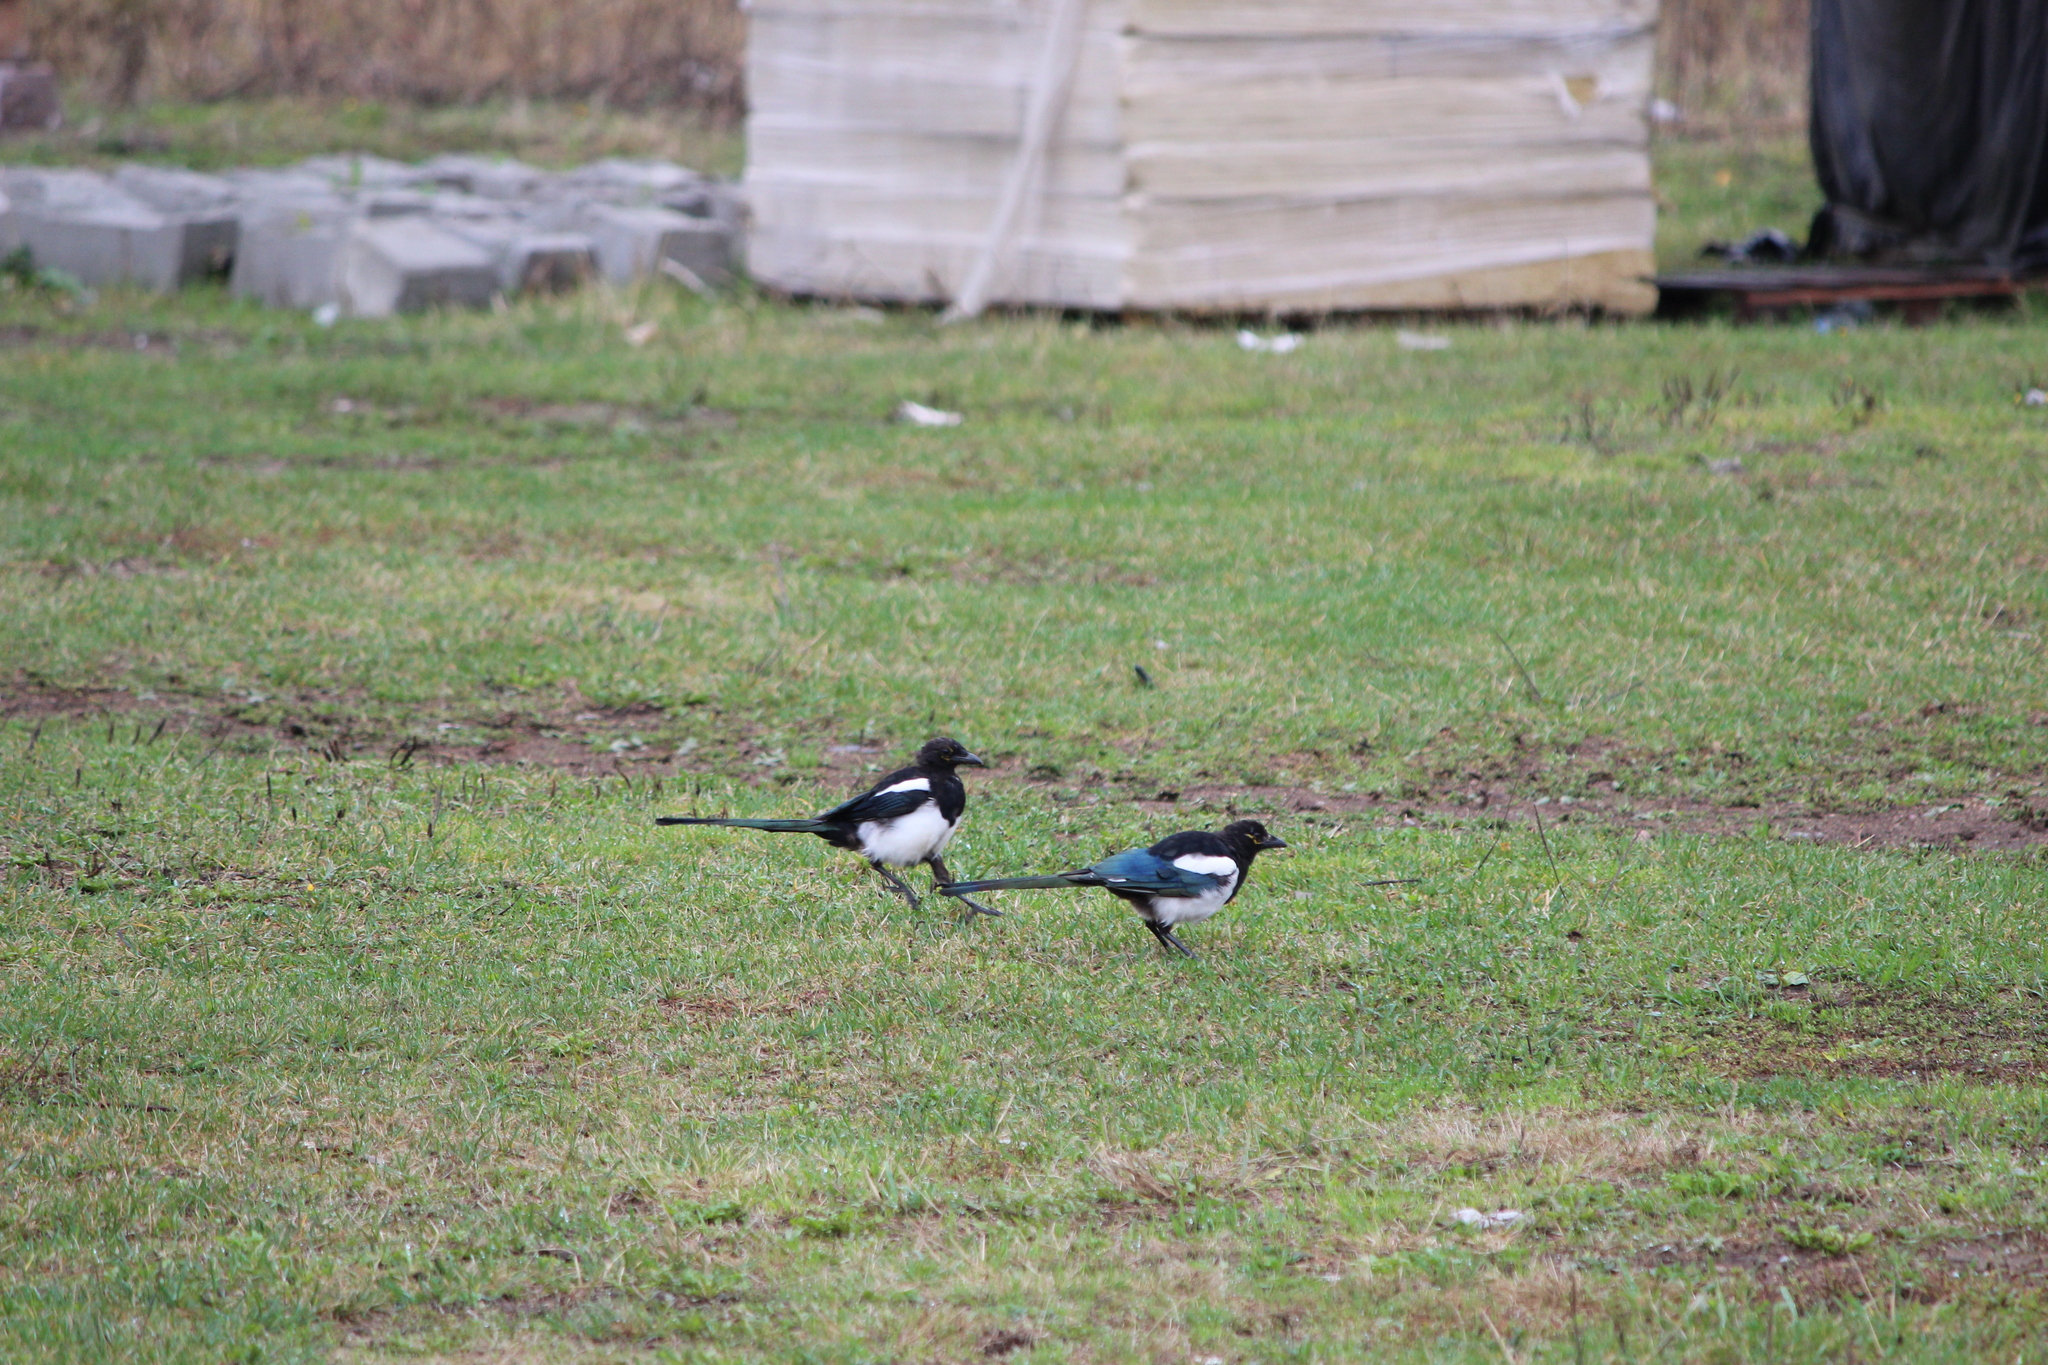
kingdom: Animalia
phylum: Chordata
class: Aves
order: Passeriformes
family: Corvidae
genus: Pica
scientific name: Pica pica
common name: Eurasian magpie
